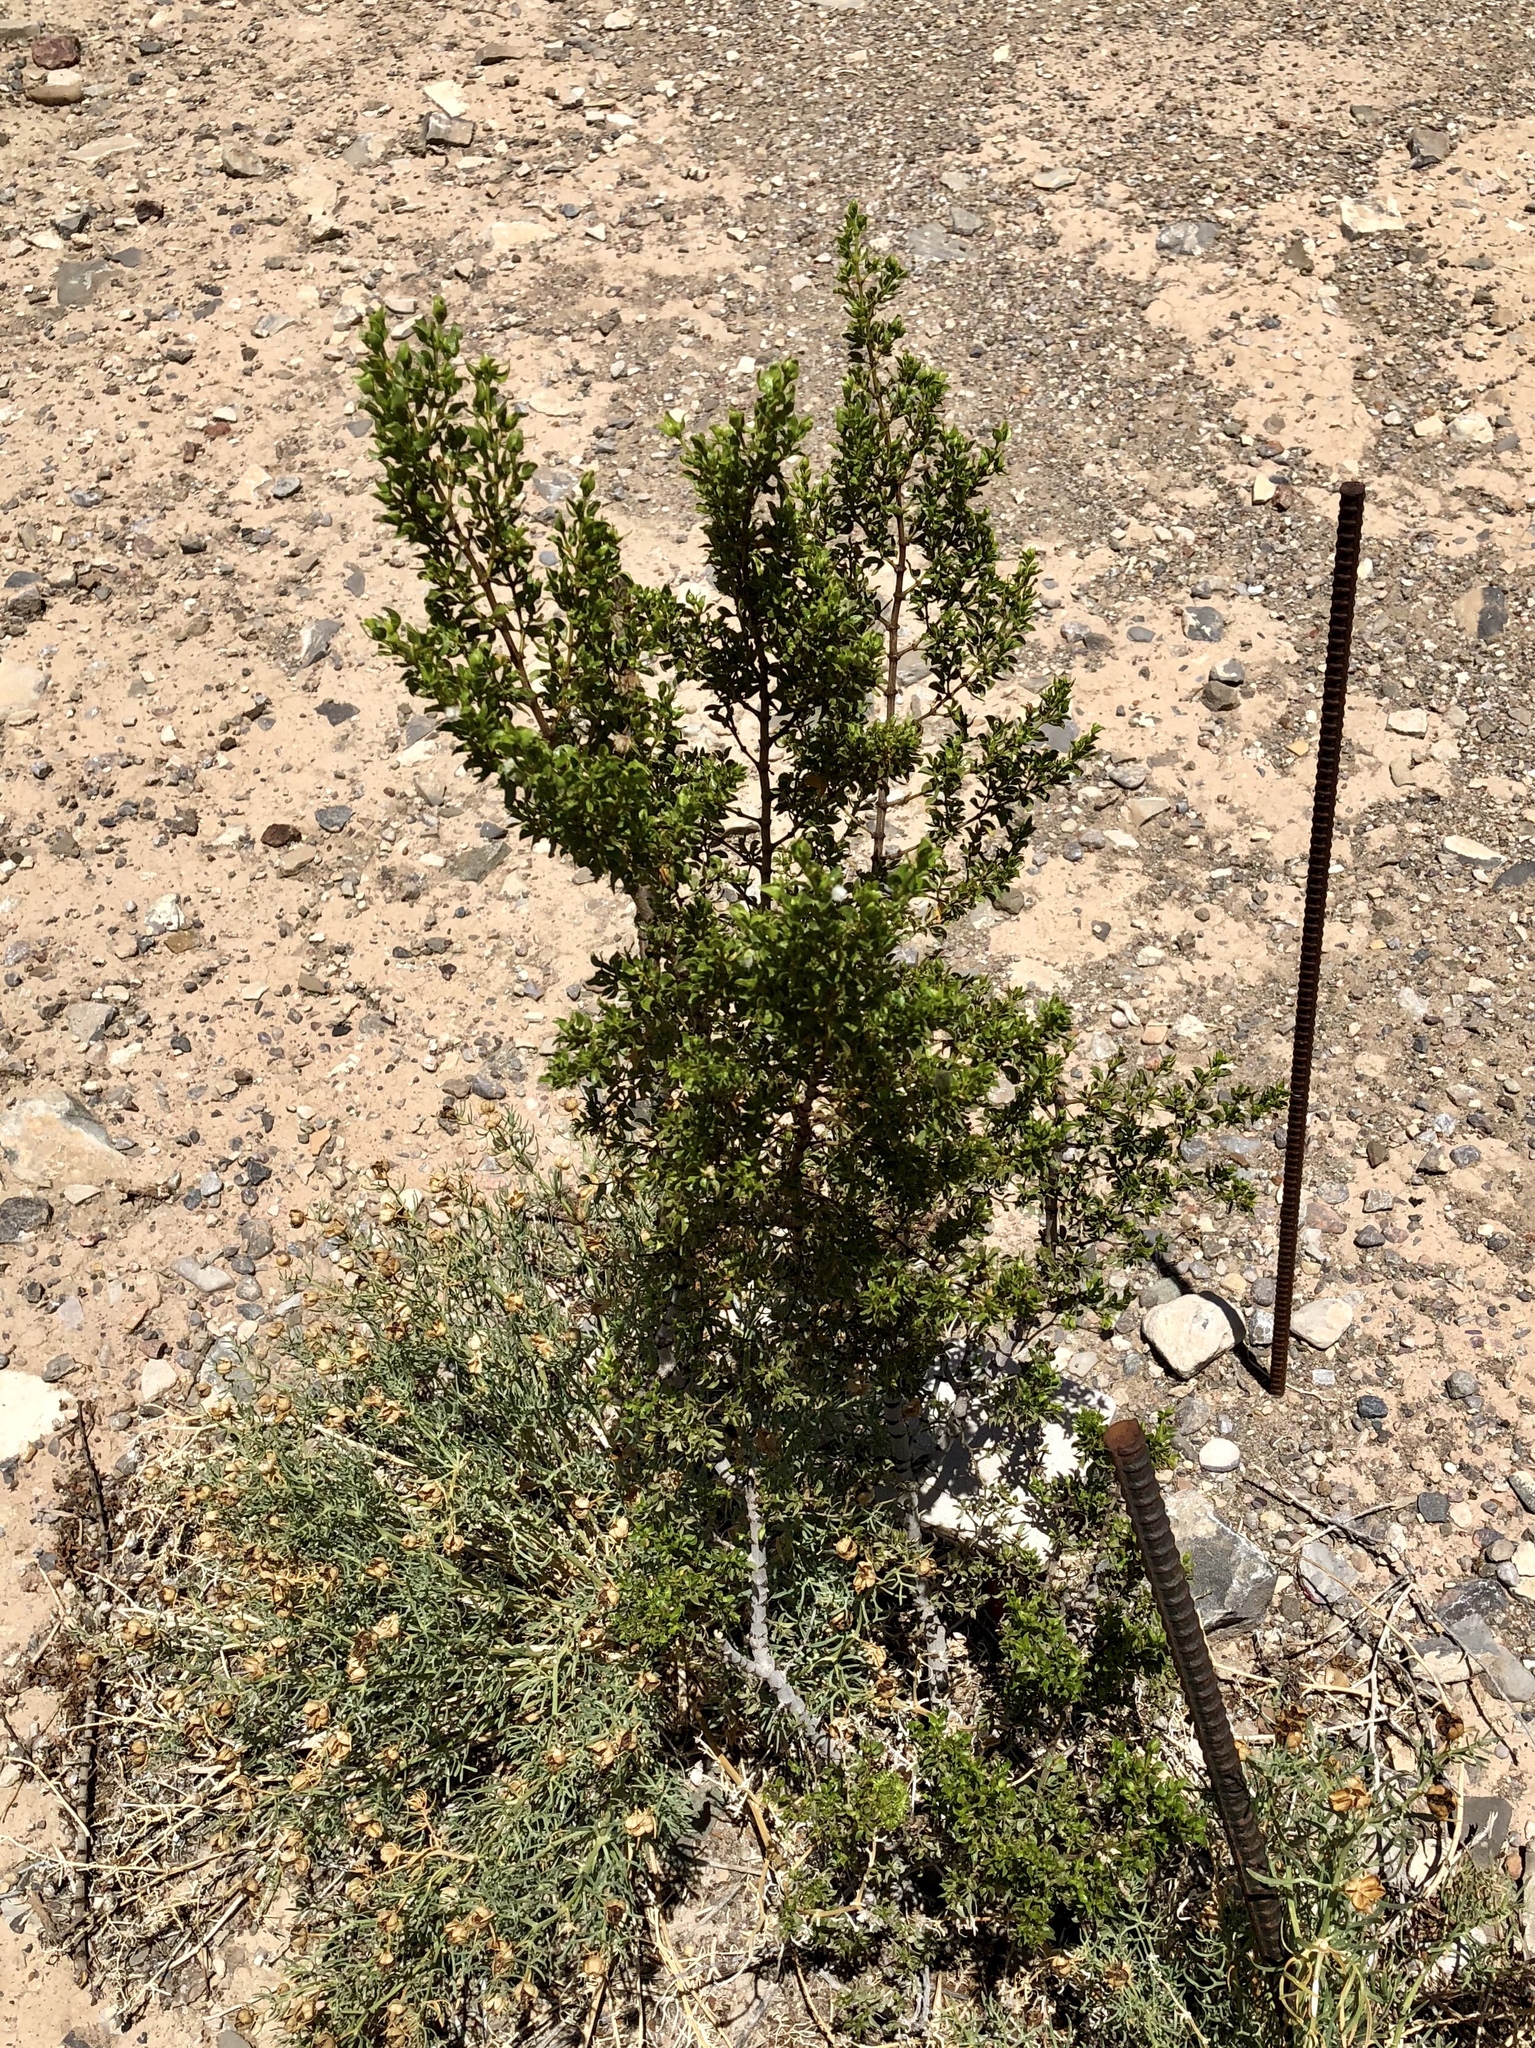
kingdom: Plantae
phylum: Tracheophyta
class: Magnoliopsida
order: Zygophyllales
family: Zygophyllaceae
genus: Larrea
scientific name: Larrea tridentata
